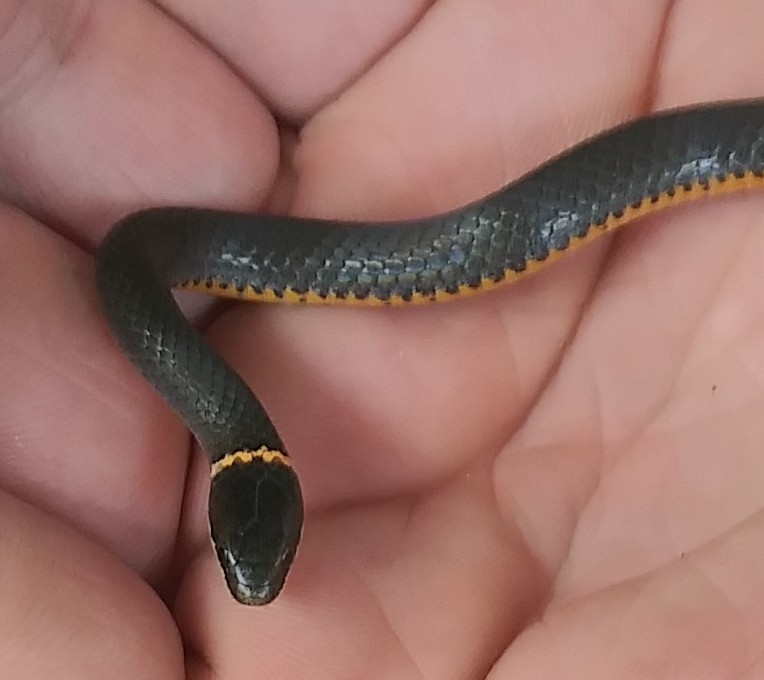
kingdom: Animalia
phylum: Chordata
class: Squamata
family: Colubridae
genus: Diadophis
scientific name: Diadophis punctatus
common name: Ringneck snake
